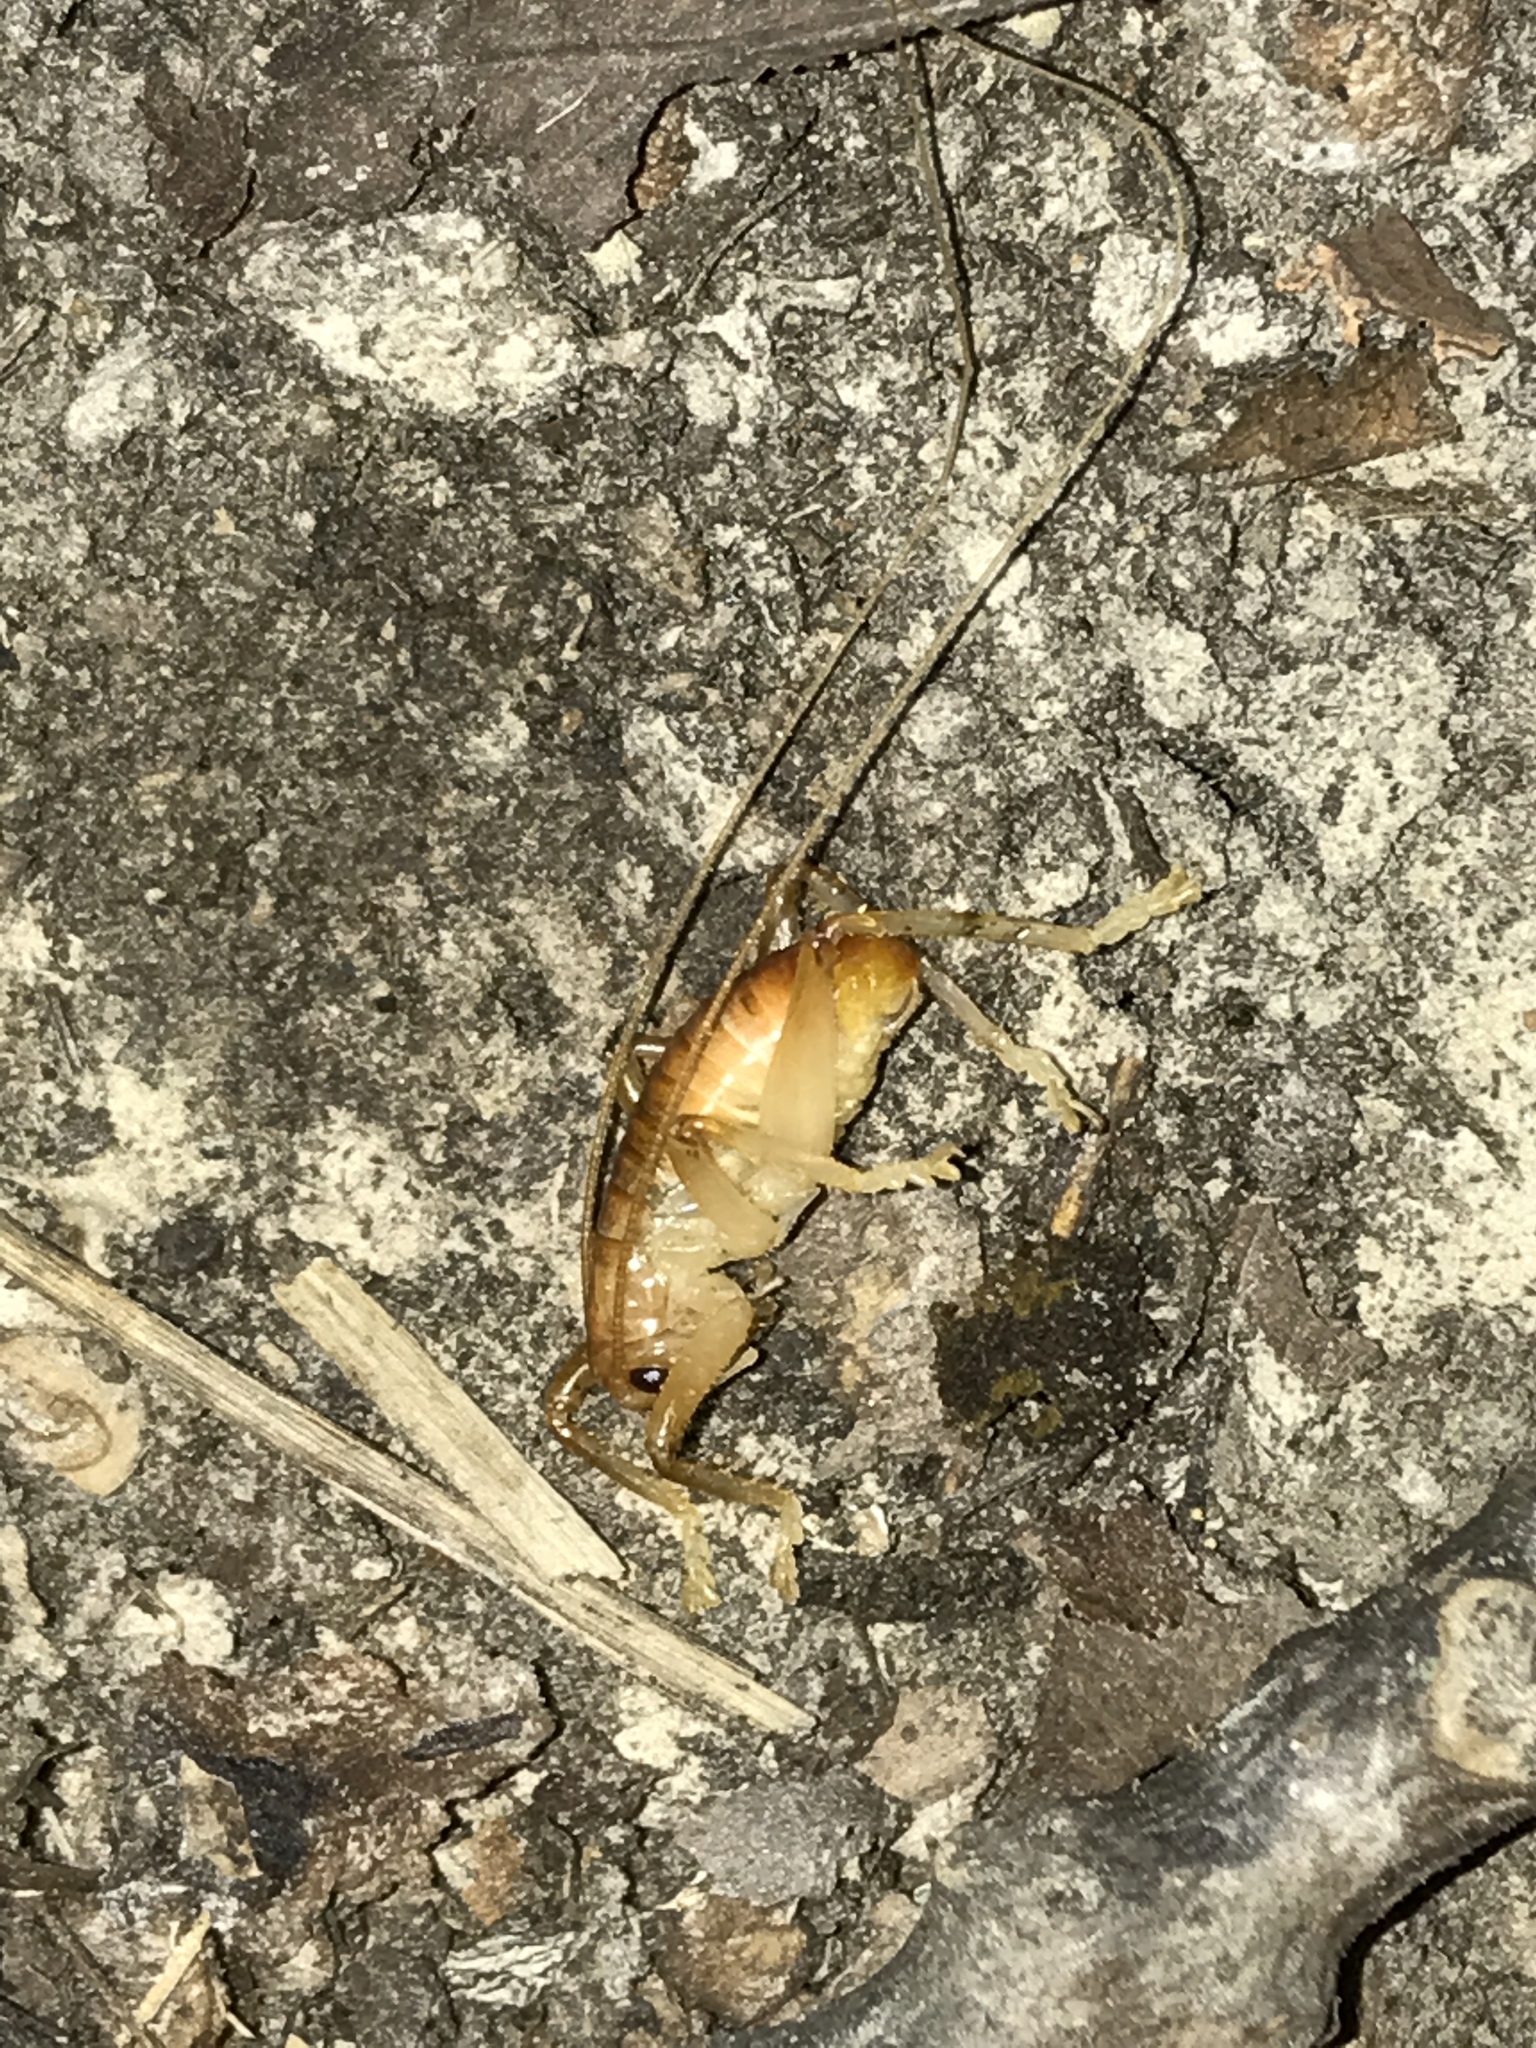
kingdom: Animalia
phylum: Arthropoda
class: Insecta
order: Orthoptera
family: Gryllacrididae
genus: Camptonotus
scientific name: Camptonotus carolinensis
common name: Carolina leaf-roller
